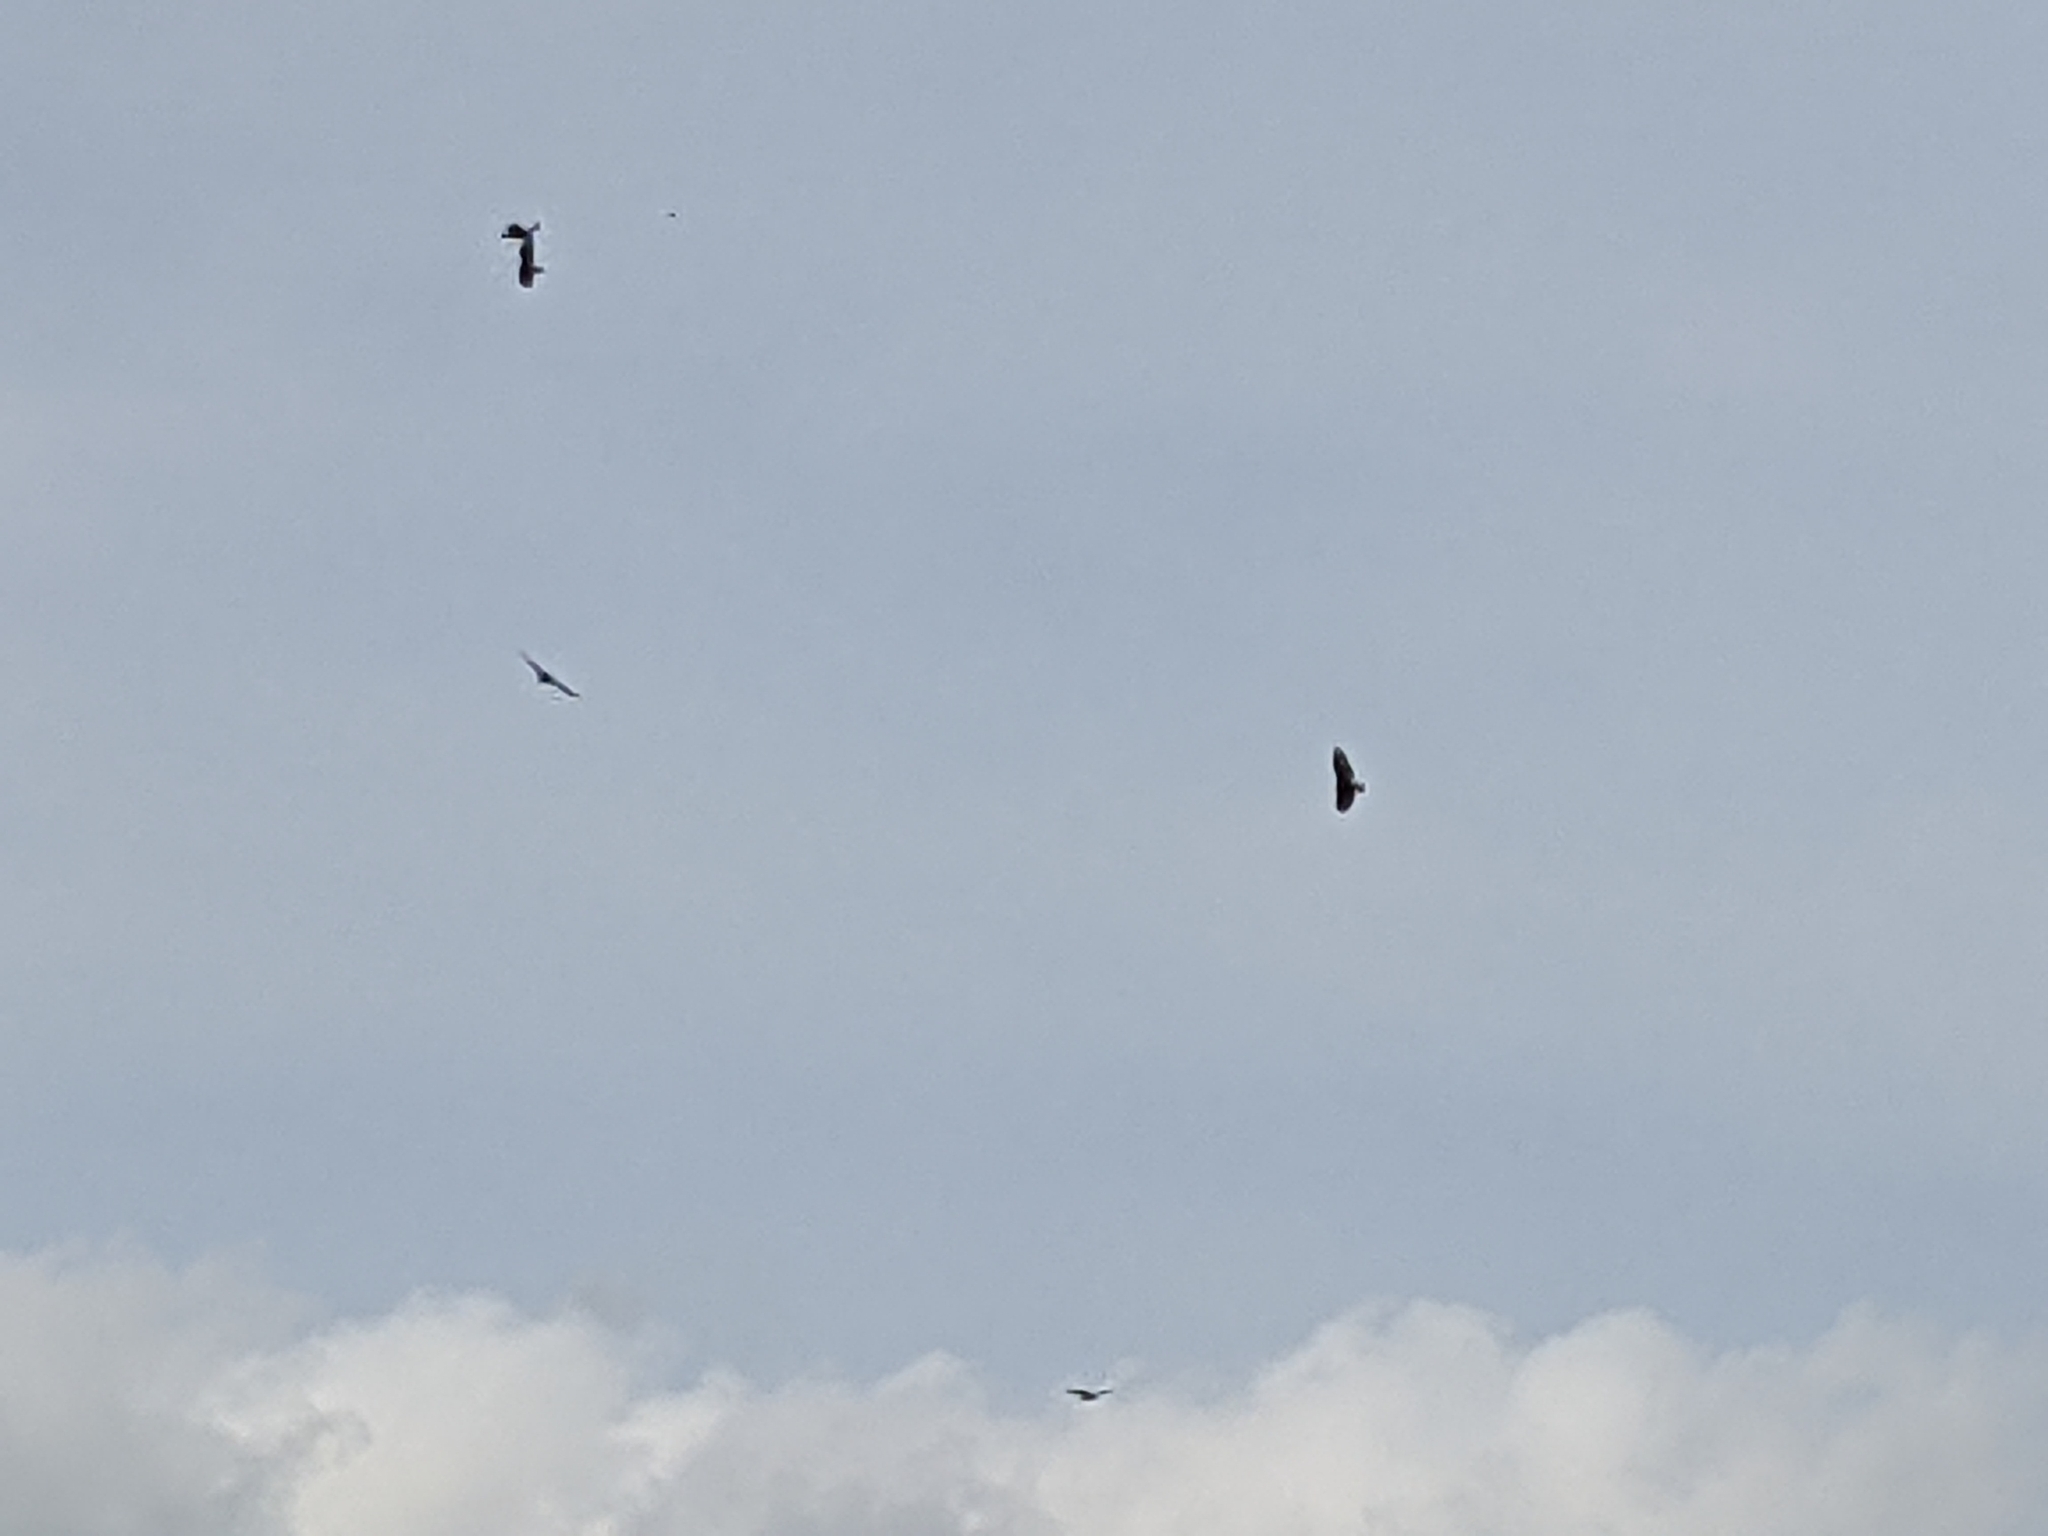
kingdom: Animalia
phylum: Chordata
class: Aves
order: Accipitriformes
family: Cathartidae
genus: Cathartes
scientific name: Cathartes aura
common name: Turkey vulture
